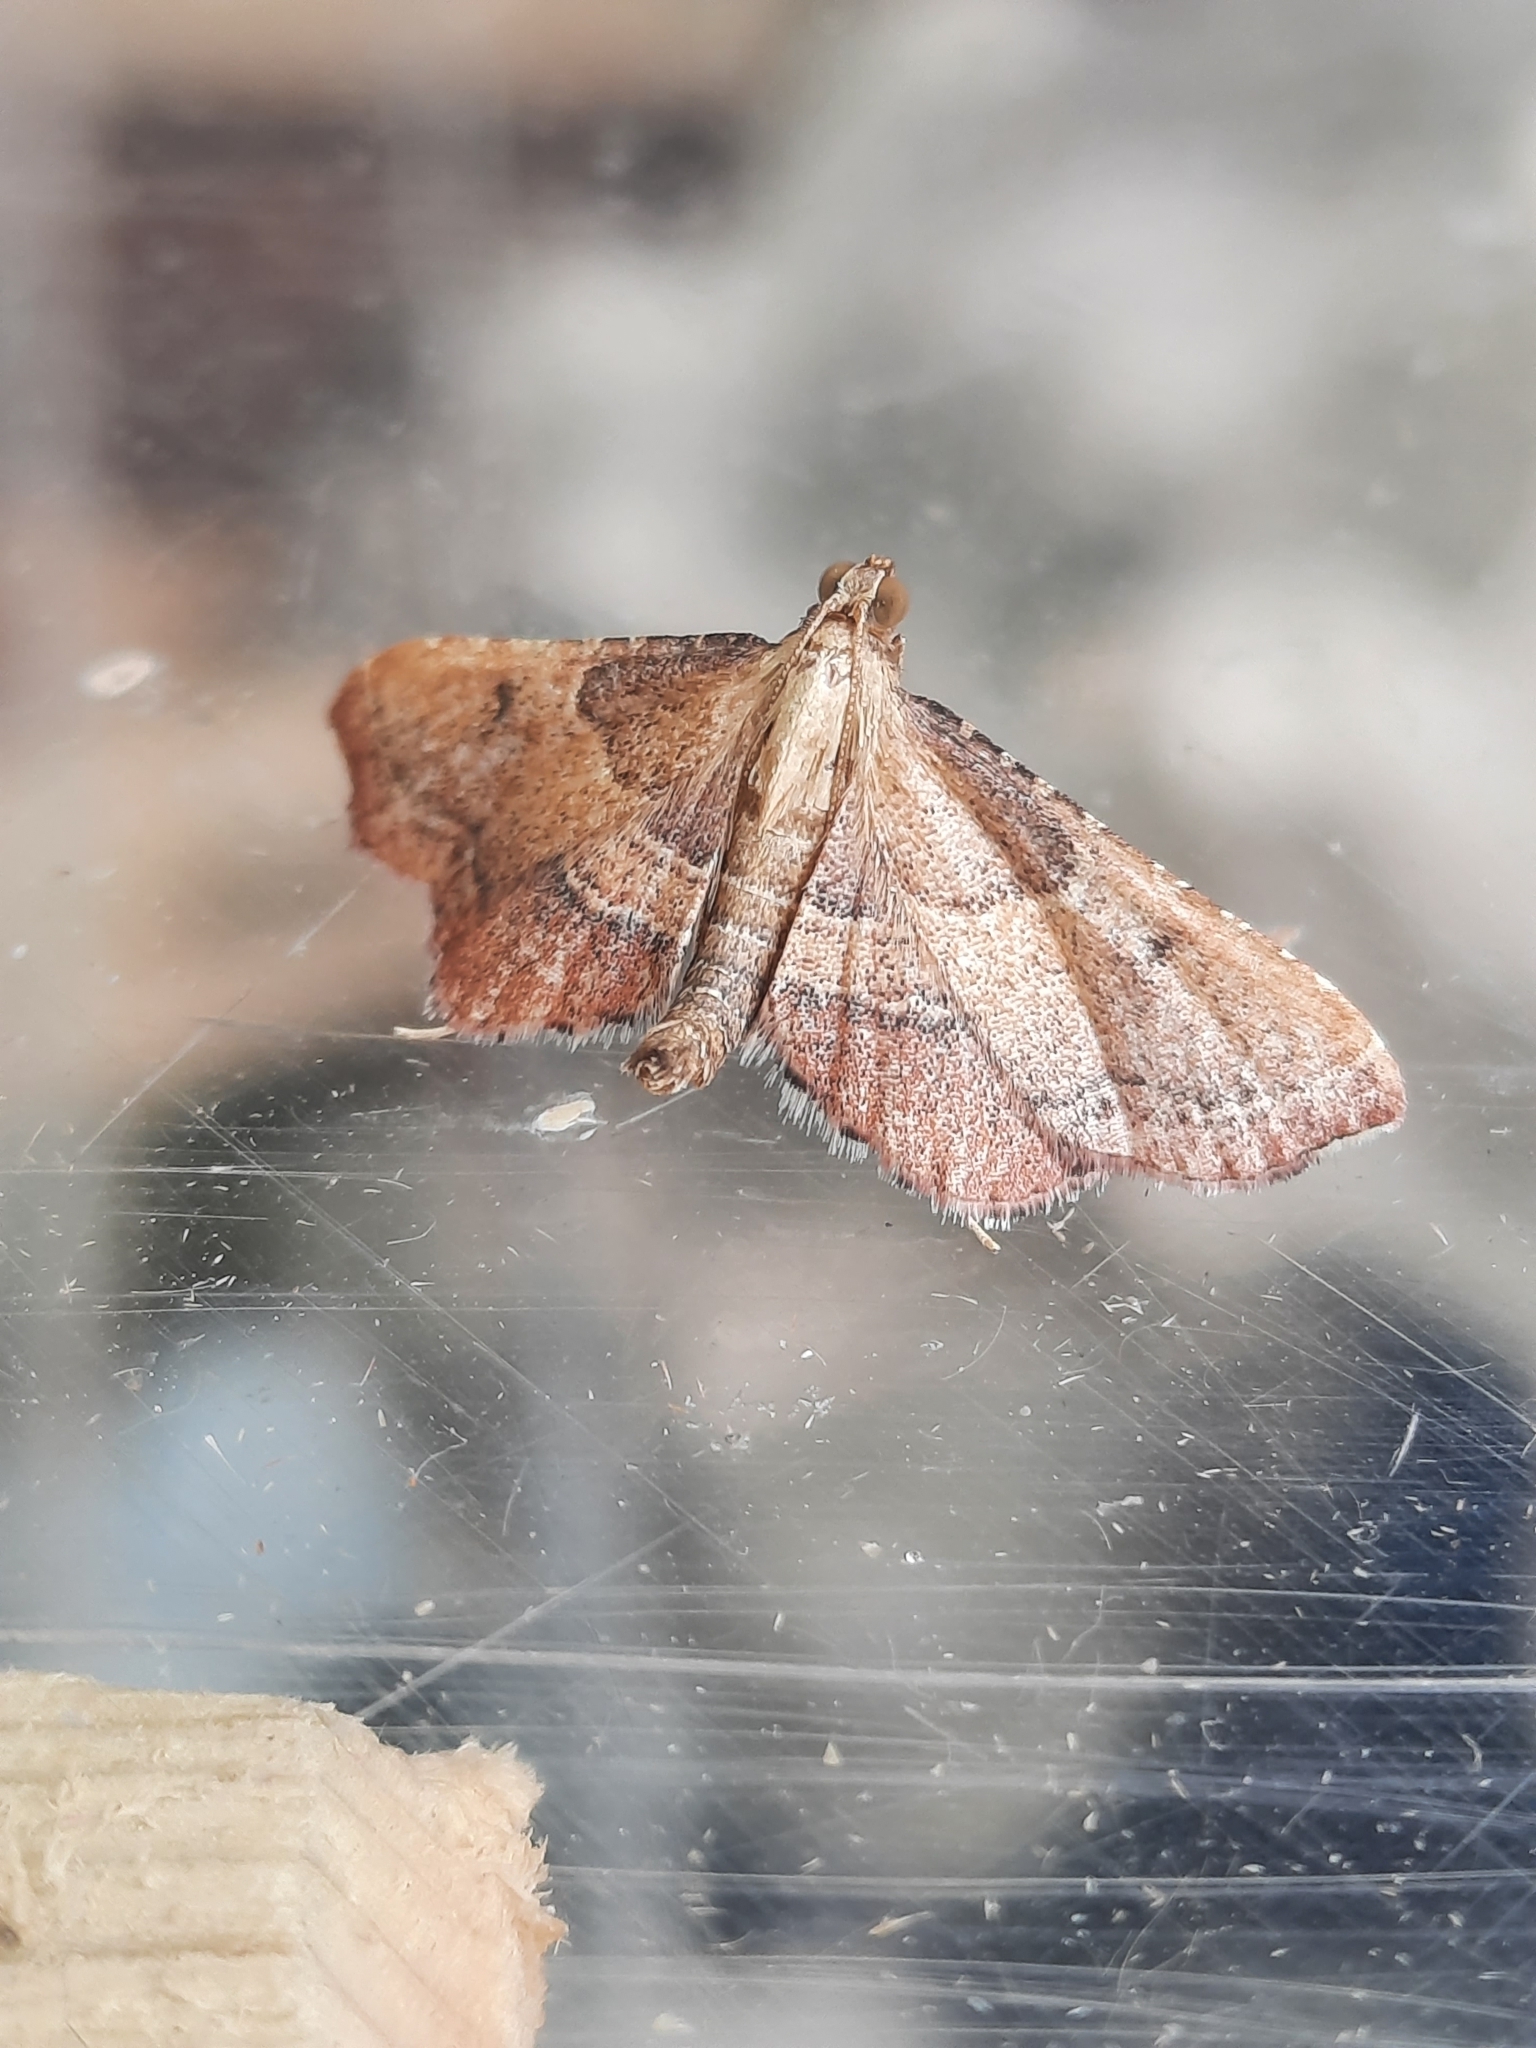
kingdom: Animalia
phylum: Arthropoda
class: Insecta
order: Lepidoptera
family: Pyralidae
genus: Endotricha
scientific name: Endotricha flammealis
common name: Rosy tabby
